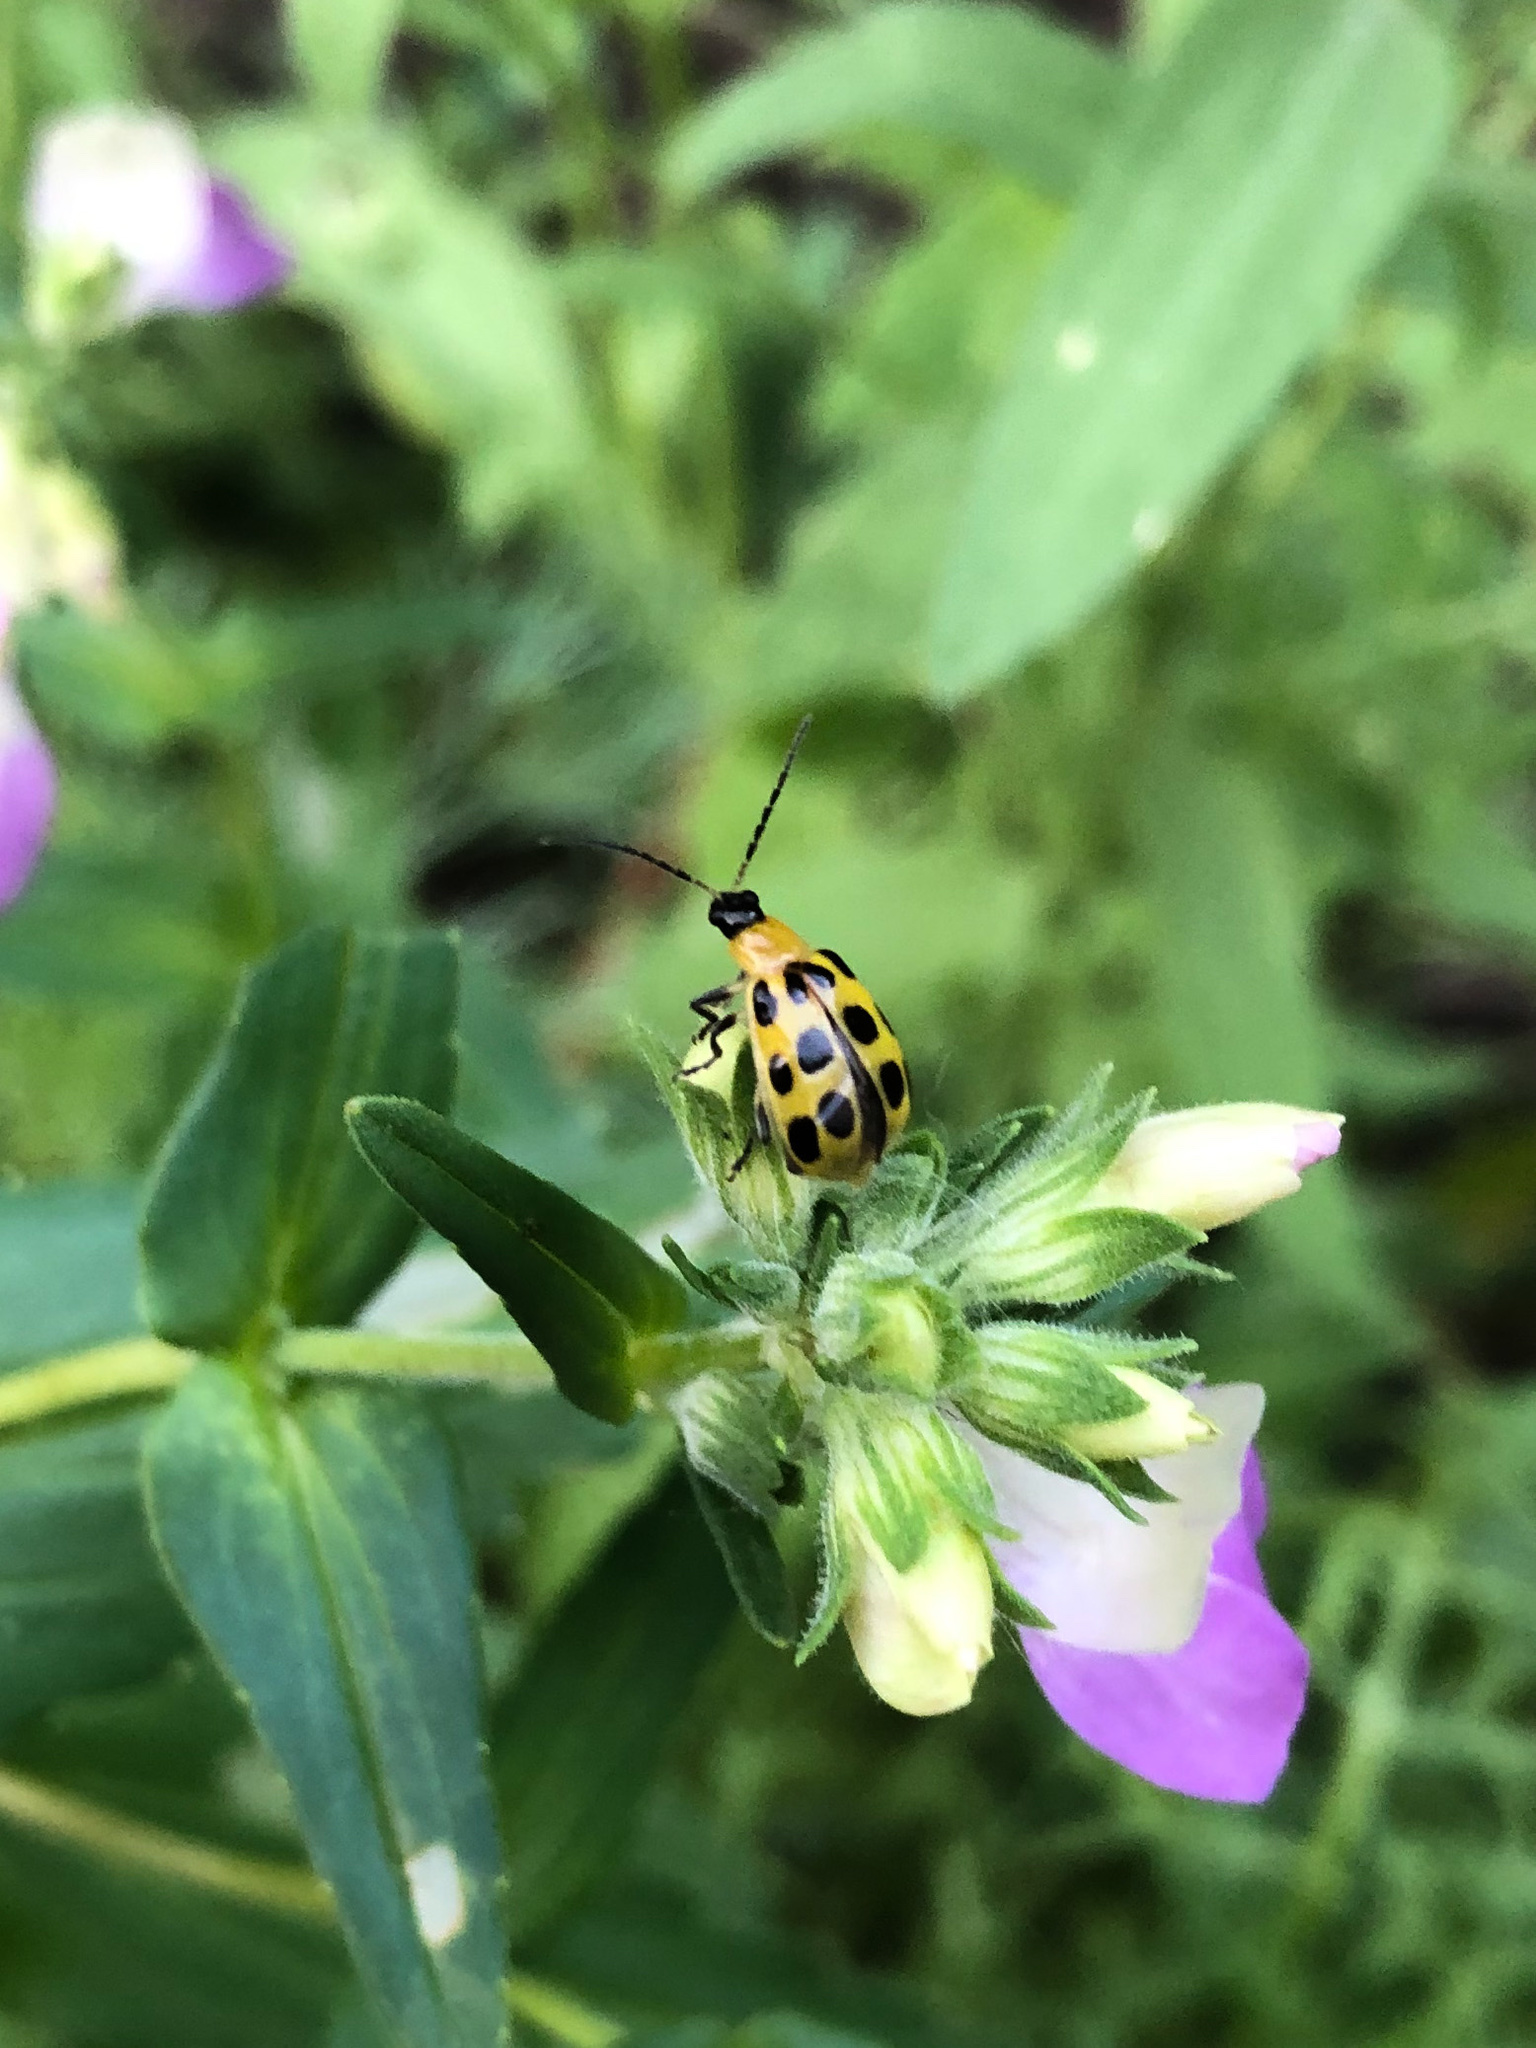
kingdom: Animalia
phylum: Arthropoda
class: Insecta
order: Coleoptera
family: Chrysomelidae
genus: Diabrotica
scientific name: Diabrotica undecimpunctata
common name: Spotted cucumber beetle
